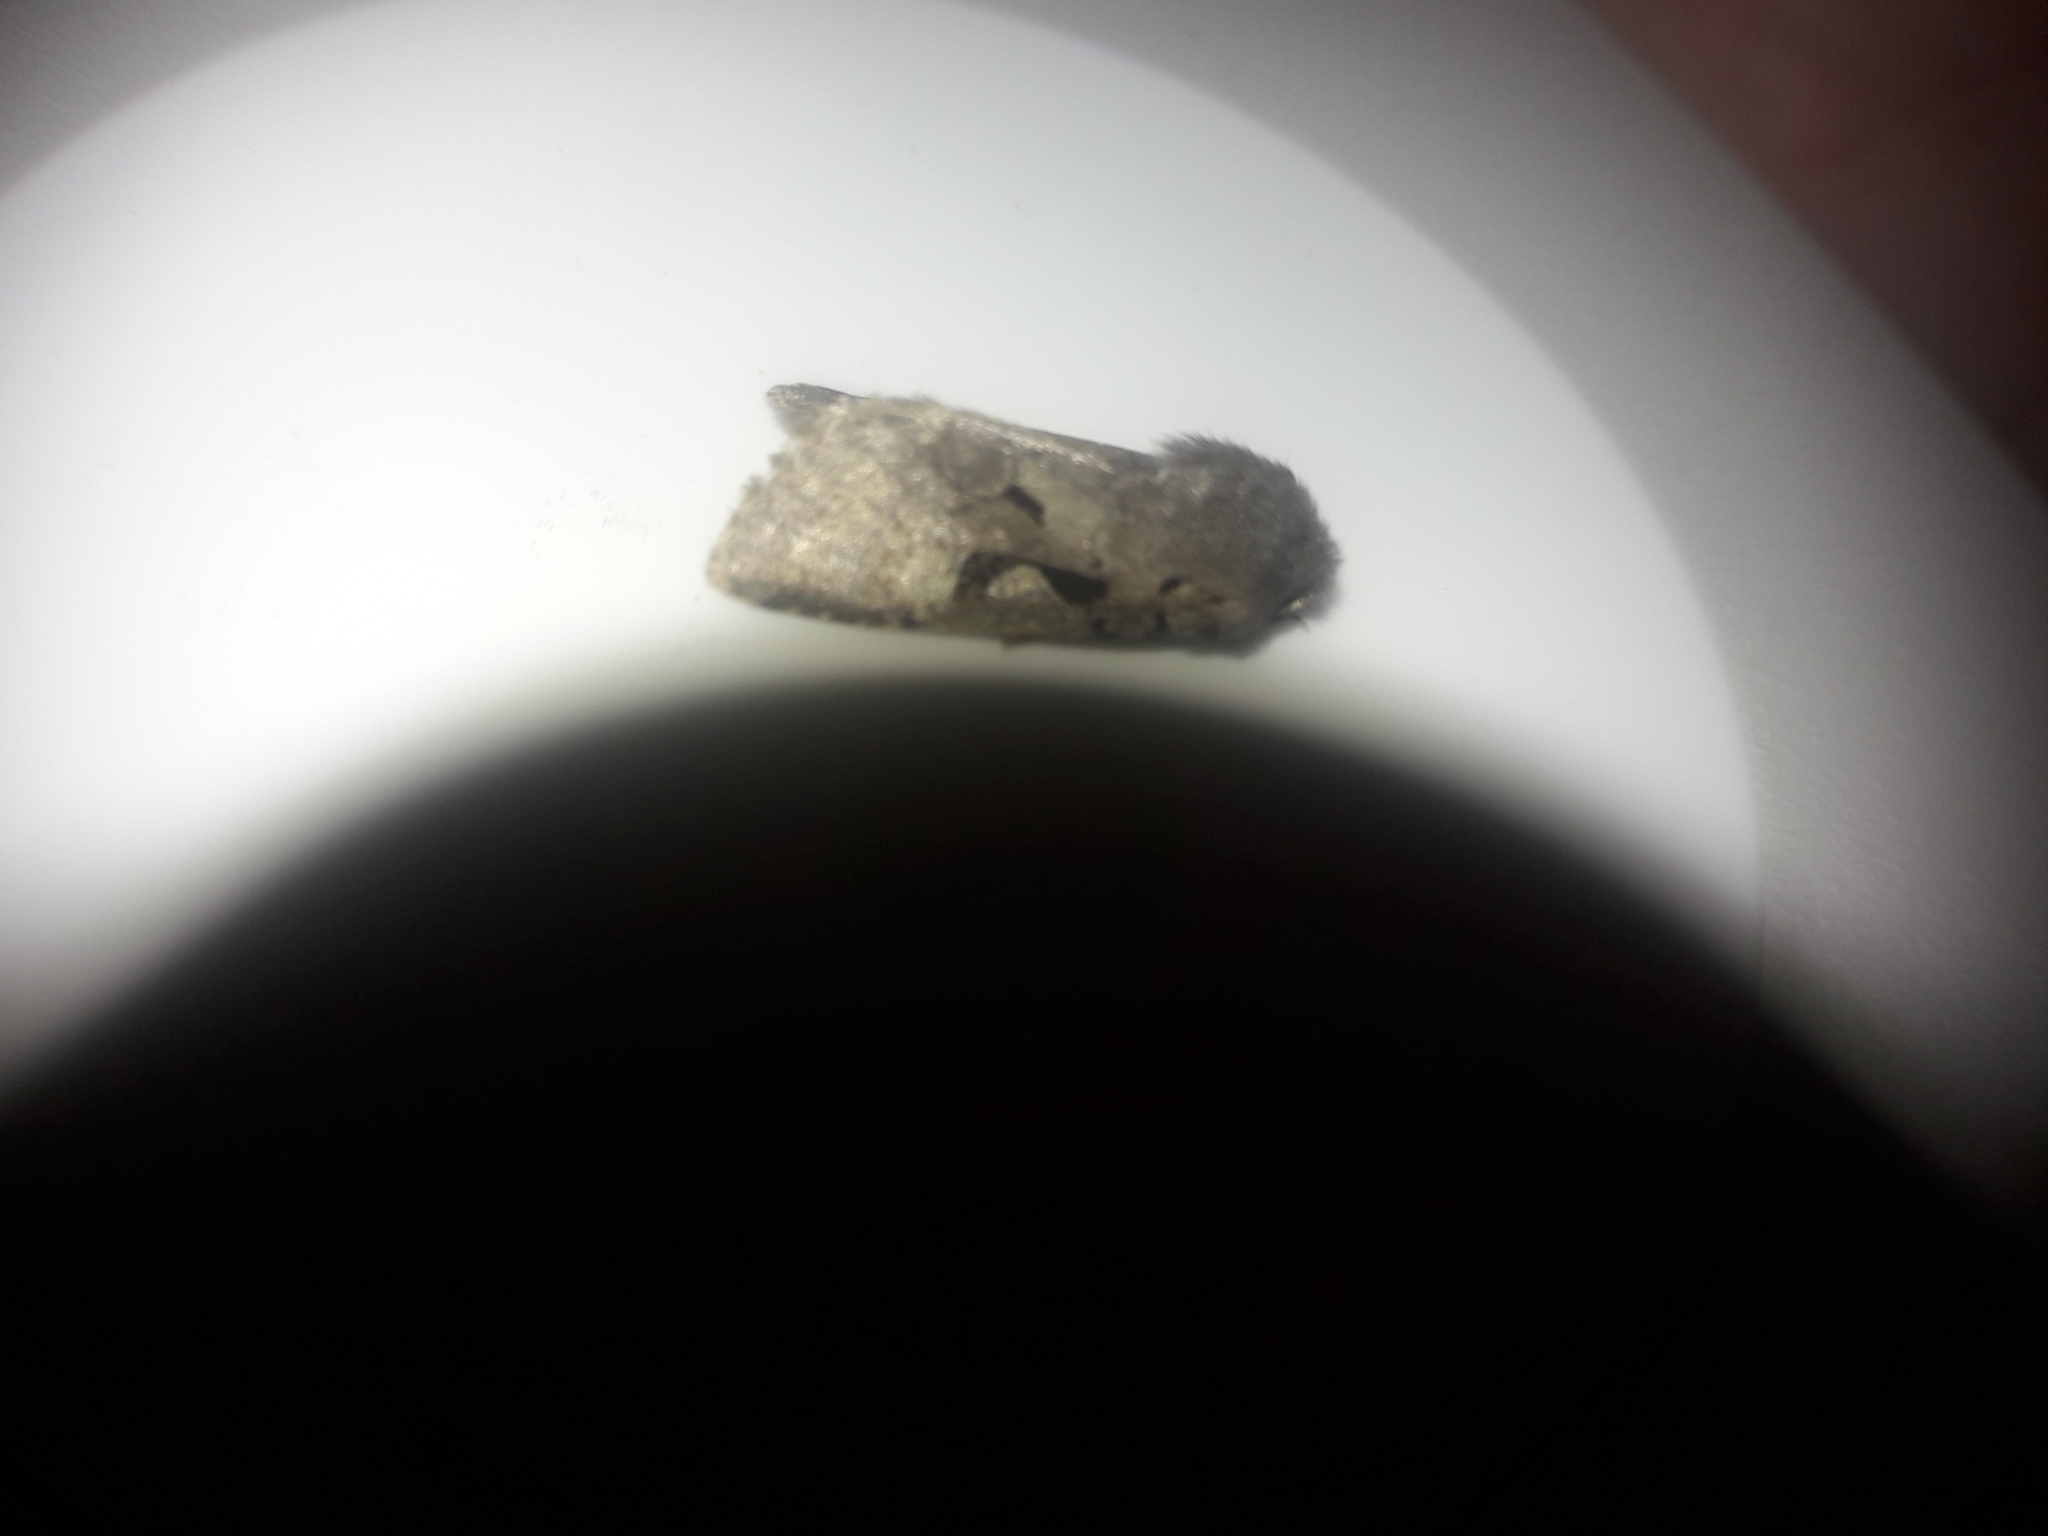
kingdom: Animalia
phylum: Arthropoda
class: Insecta
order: Lepidoptera
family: Noctuidae
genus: Orthosia
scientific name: Orthosia gothica
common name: Hebrew character
